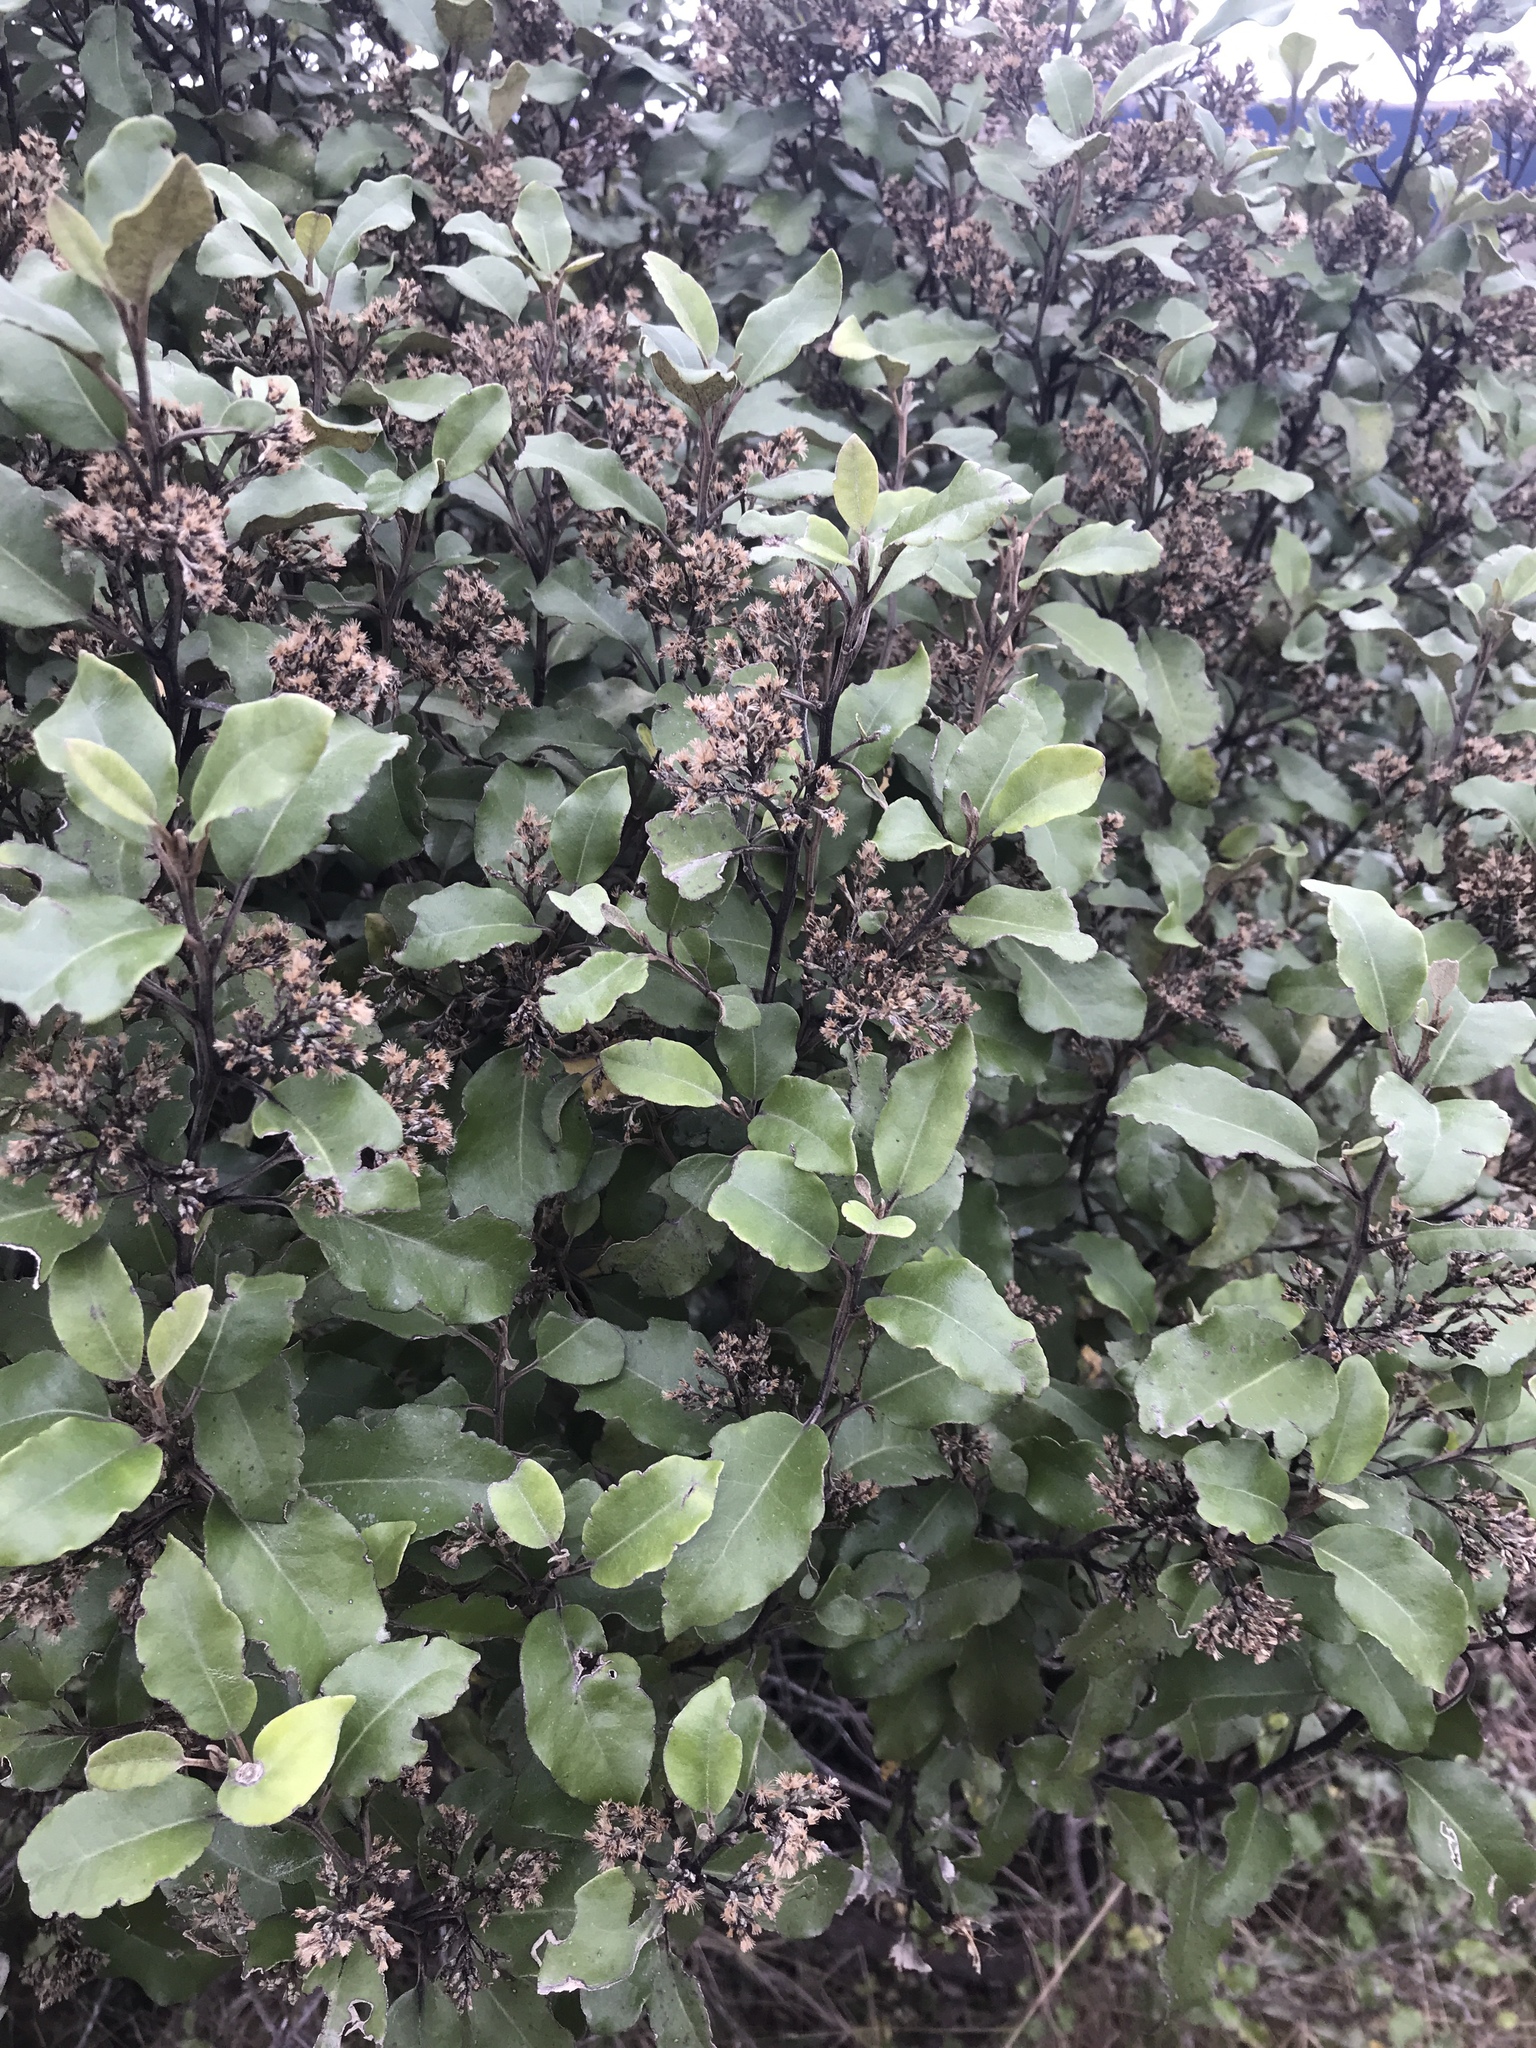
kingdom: Plantae
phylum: Tracheophyta
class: Magnoliopsida
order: Asterales
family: Asteraceae
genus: Olearia
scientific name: Olearia paniculata
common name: Akiraho
